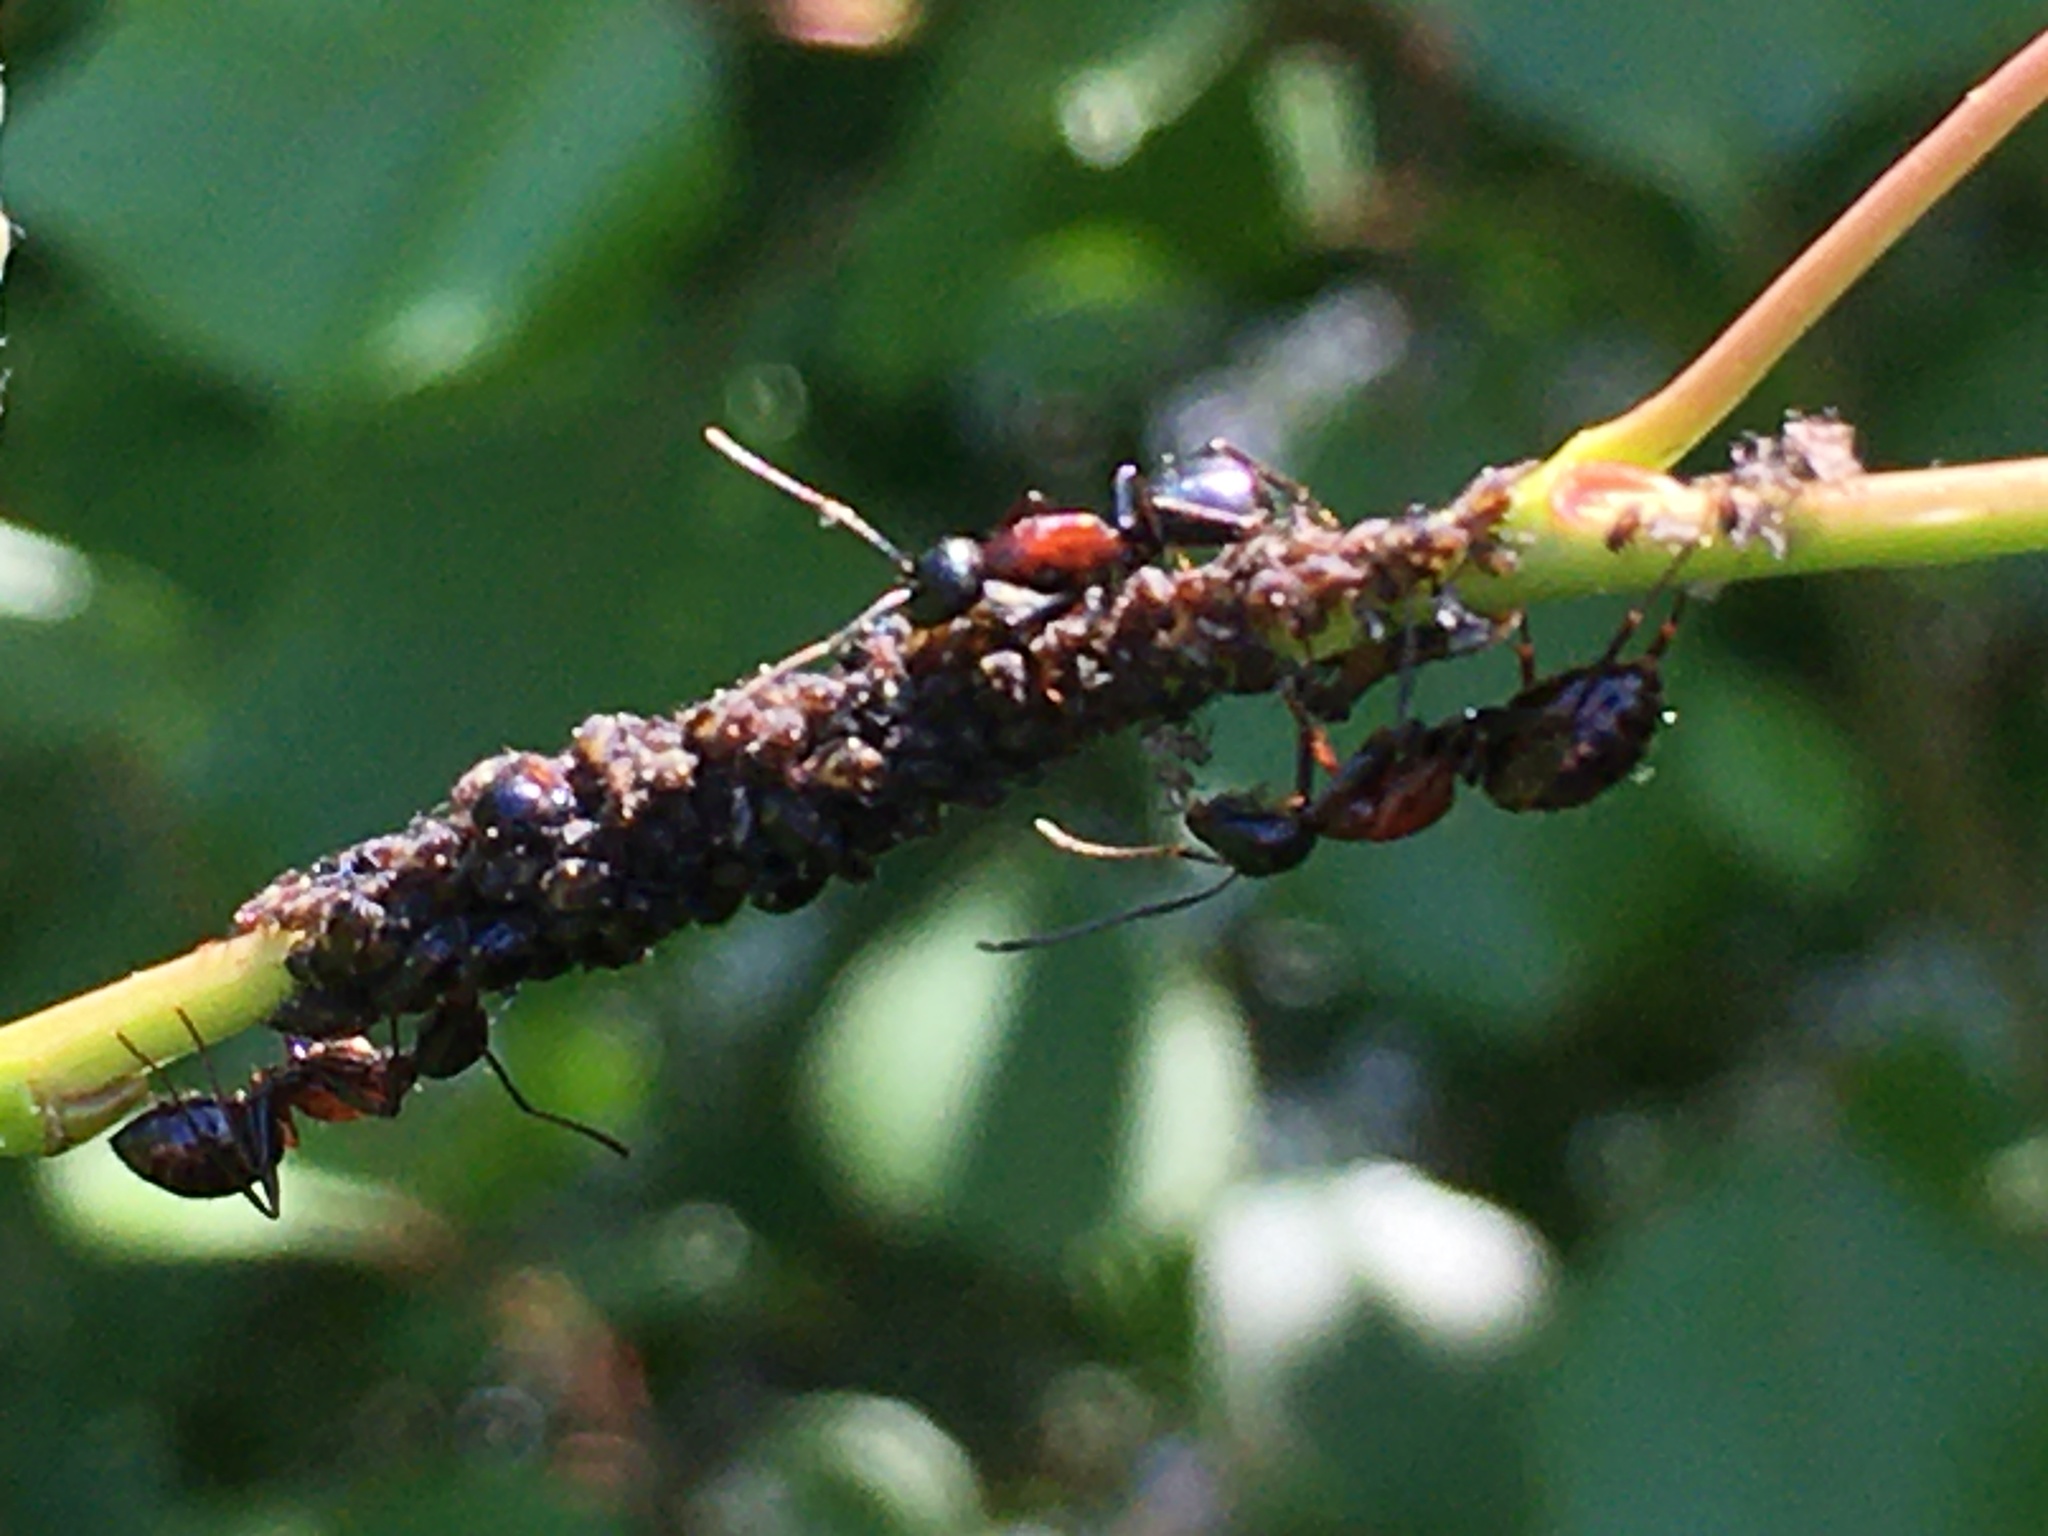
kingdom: Animalia
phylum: Arthropoda
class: Insecta
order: Hymenoptera
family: Formicidae
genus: Camponotus
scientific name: Camponotus novaeboracensis
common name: New york carpenter ant
